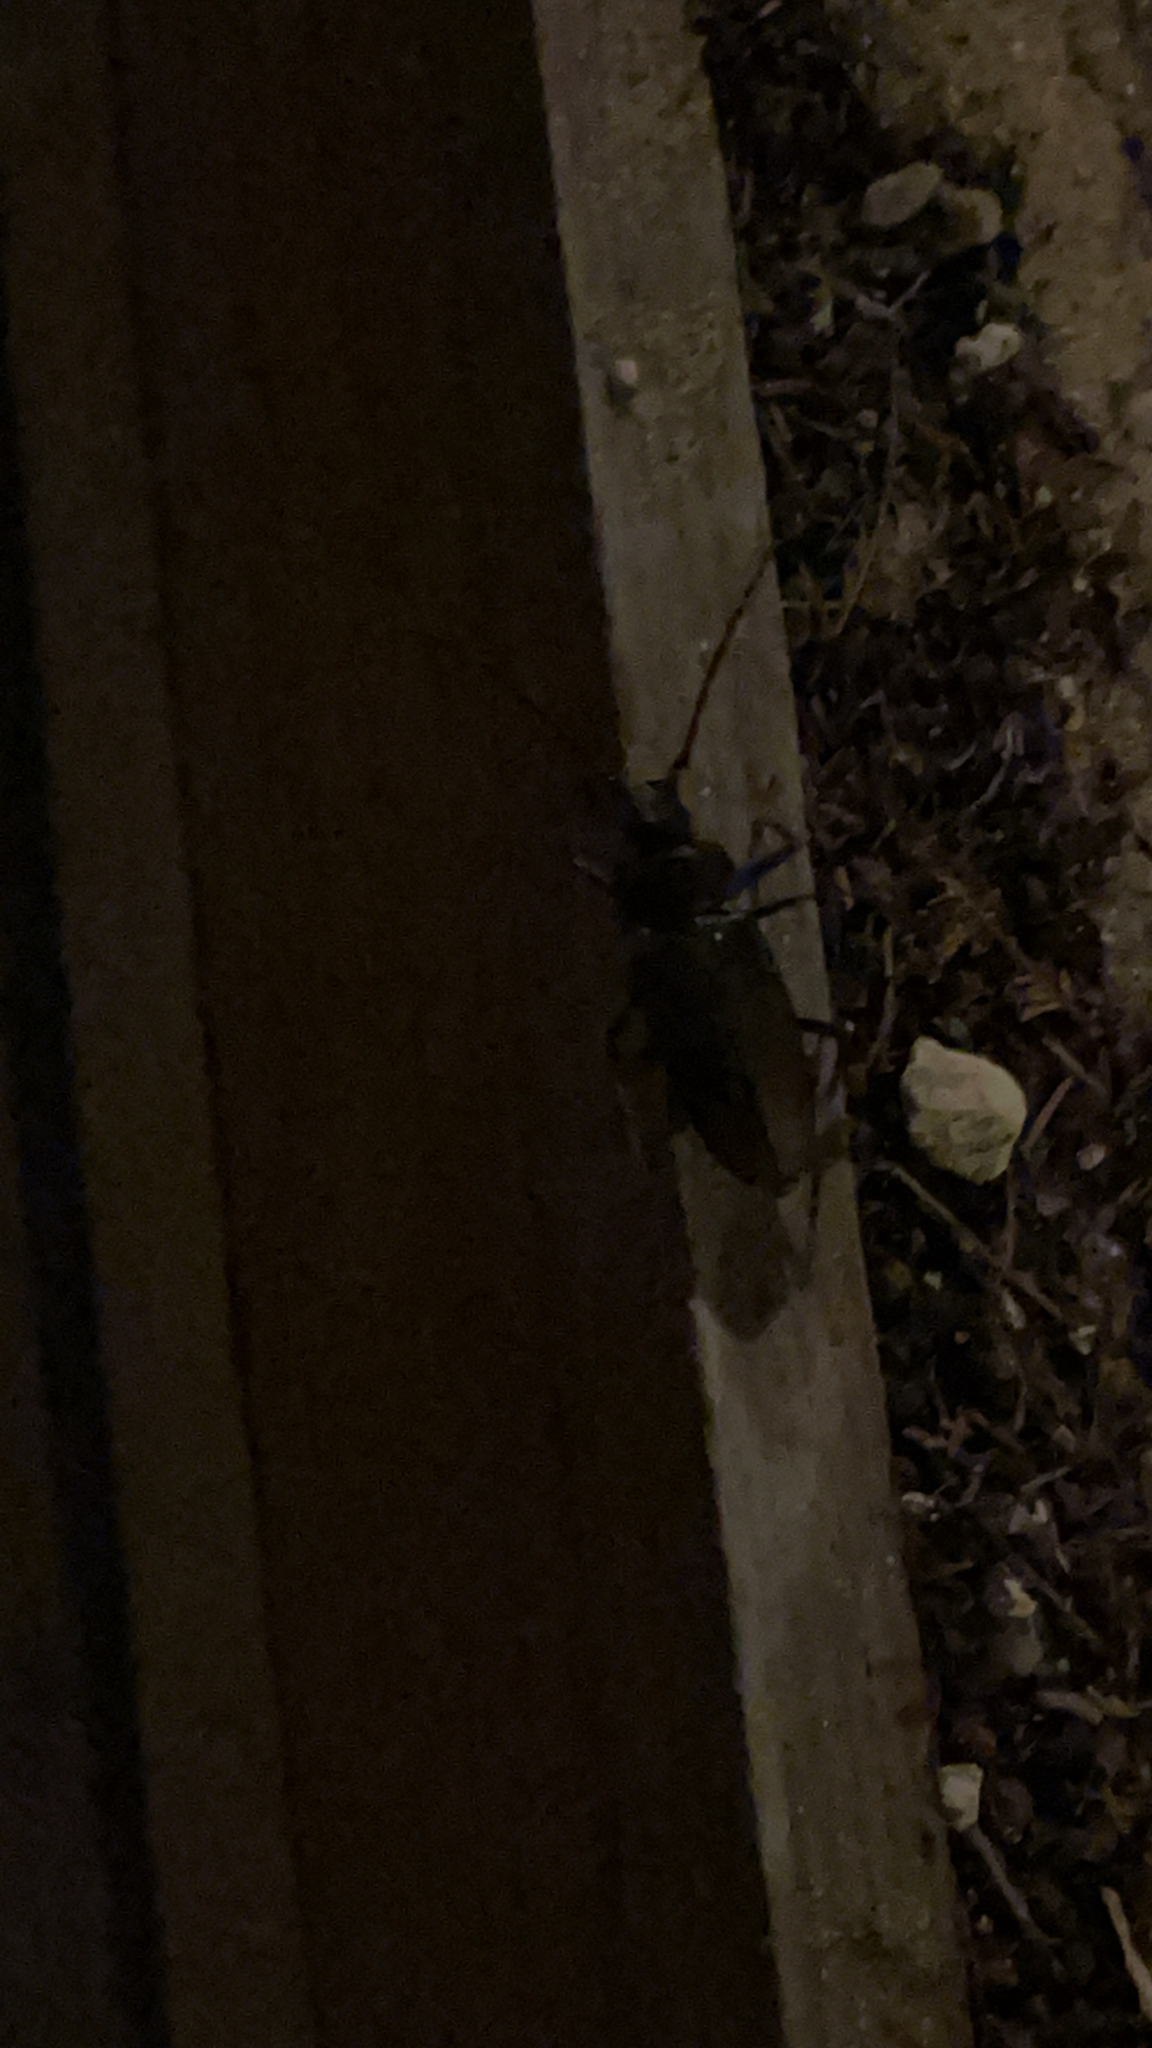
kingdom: Animalia
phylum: Arthropoda
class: Insecta
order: Coleoptera
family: Cerambycidae
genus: Ergates
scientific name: Ergates faber
